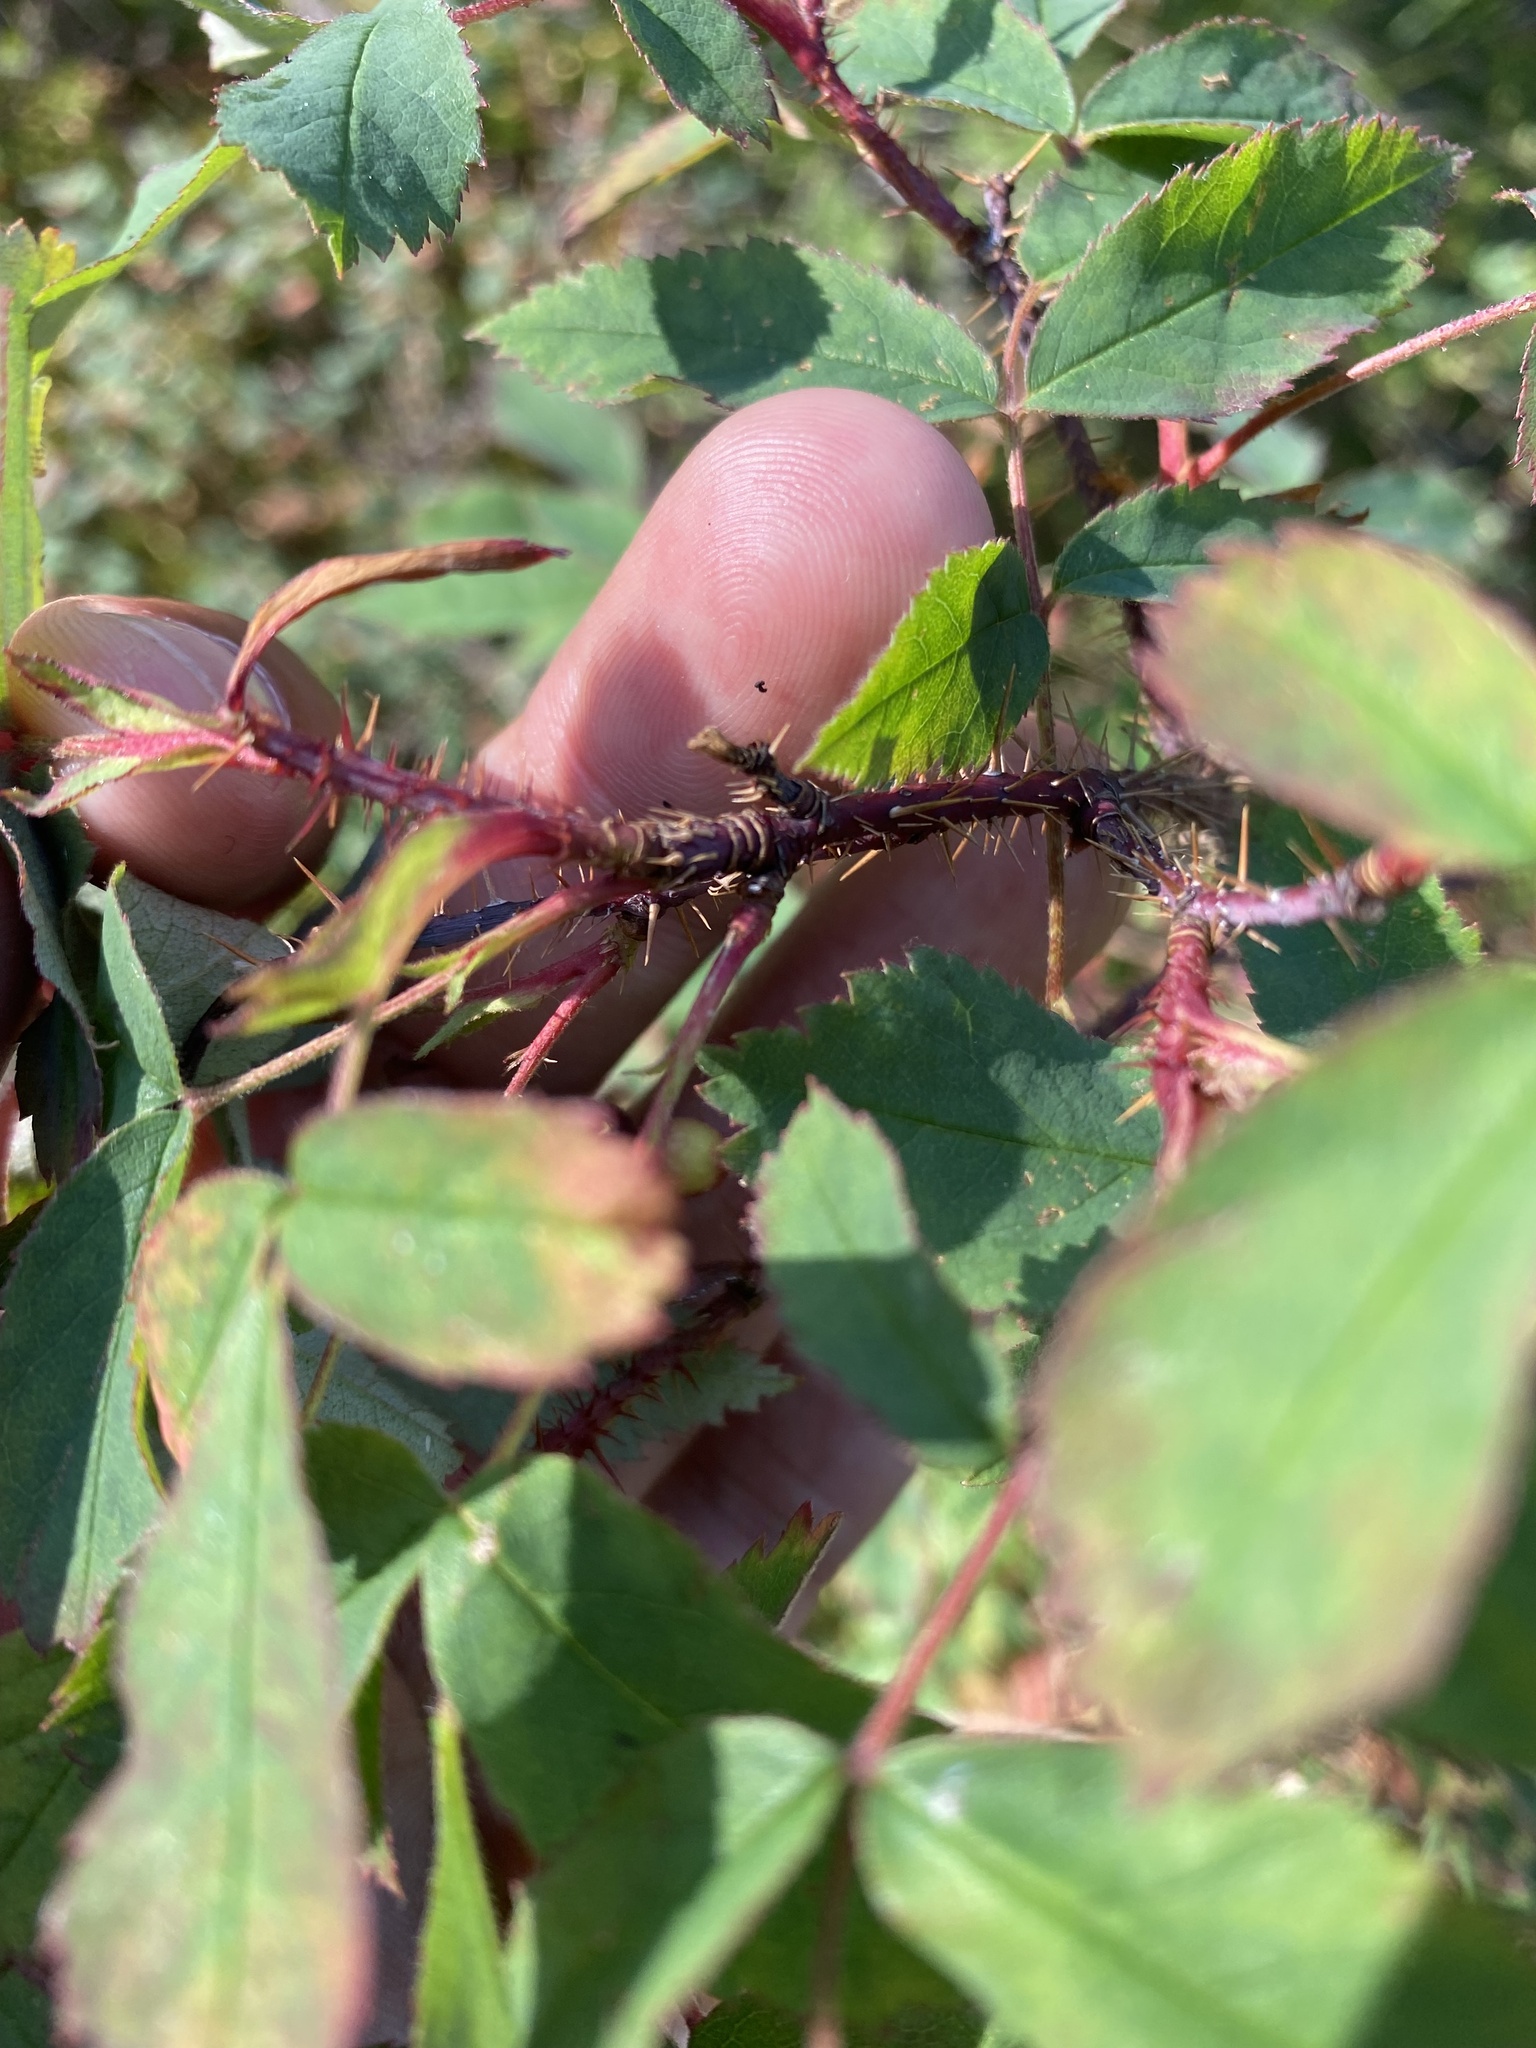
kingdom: Plantae
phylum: Tracheophyta
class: Magnoliopsida
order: Rosales
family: Rosaceae
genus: Rosa
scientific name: Rosa acicularis
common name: Prickly rose
